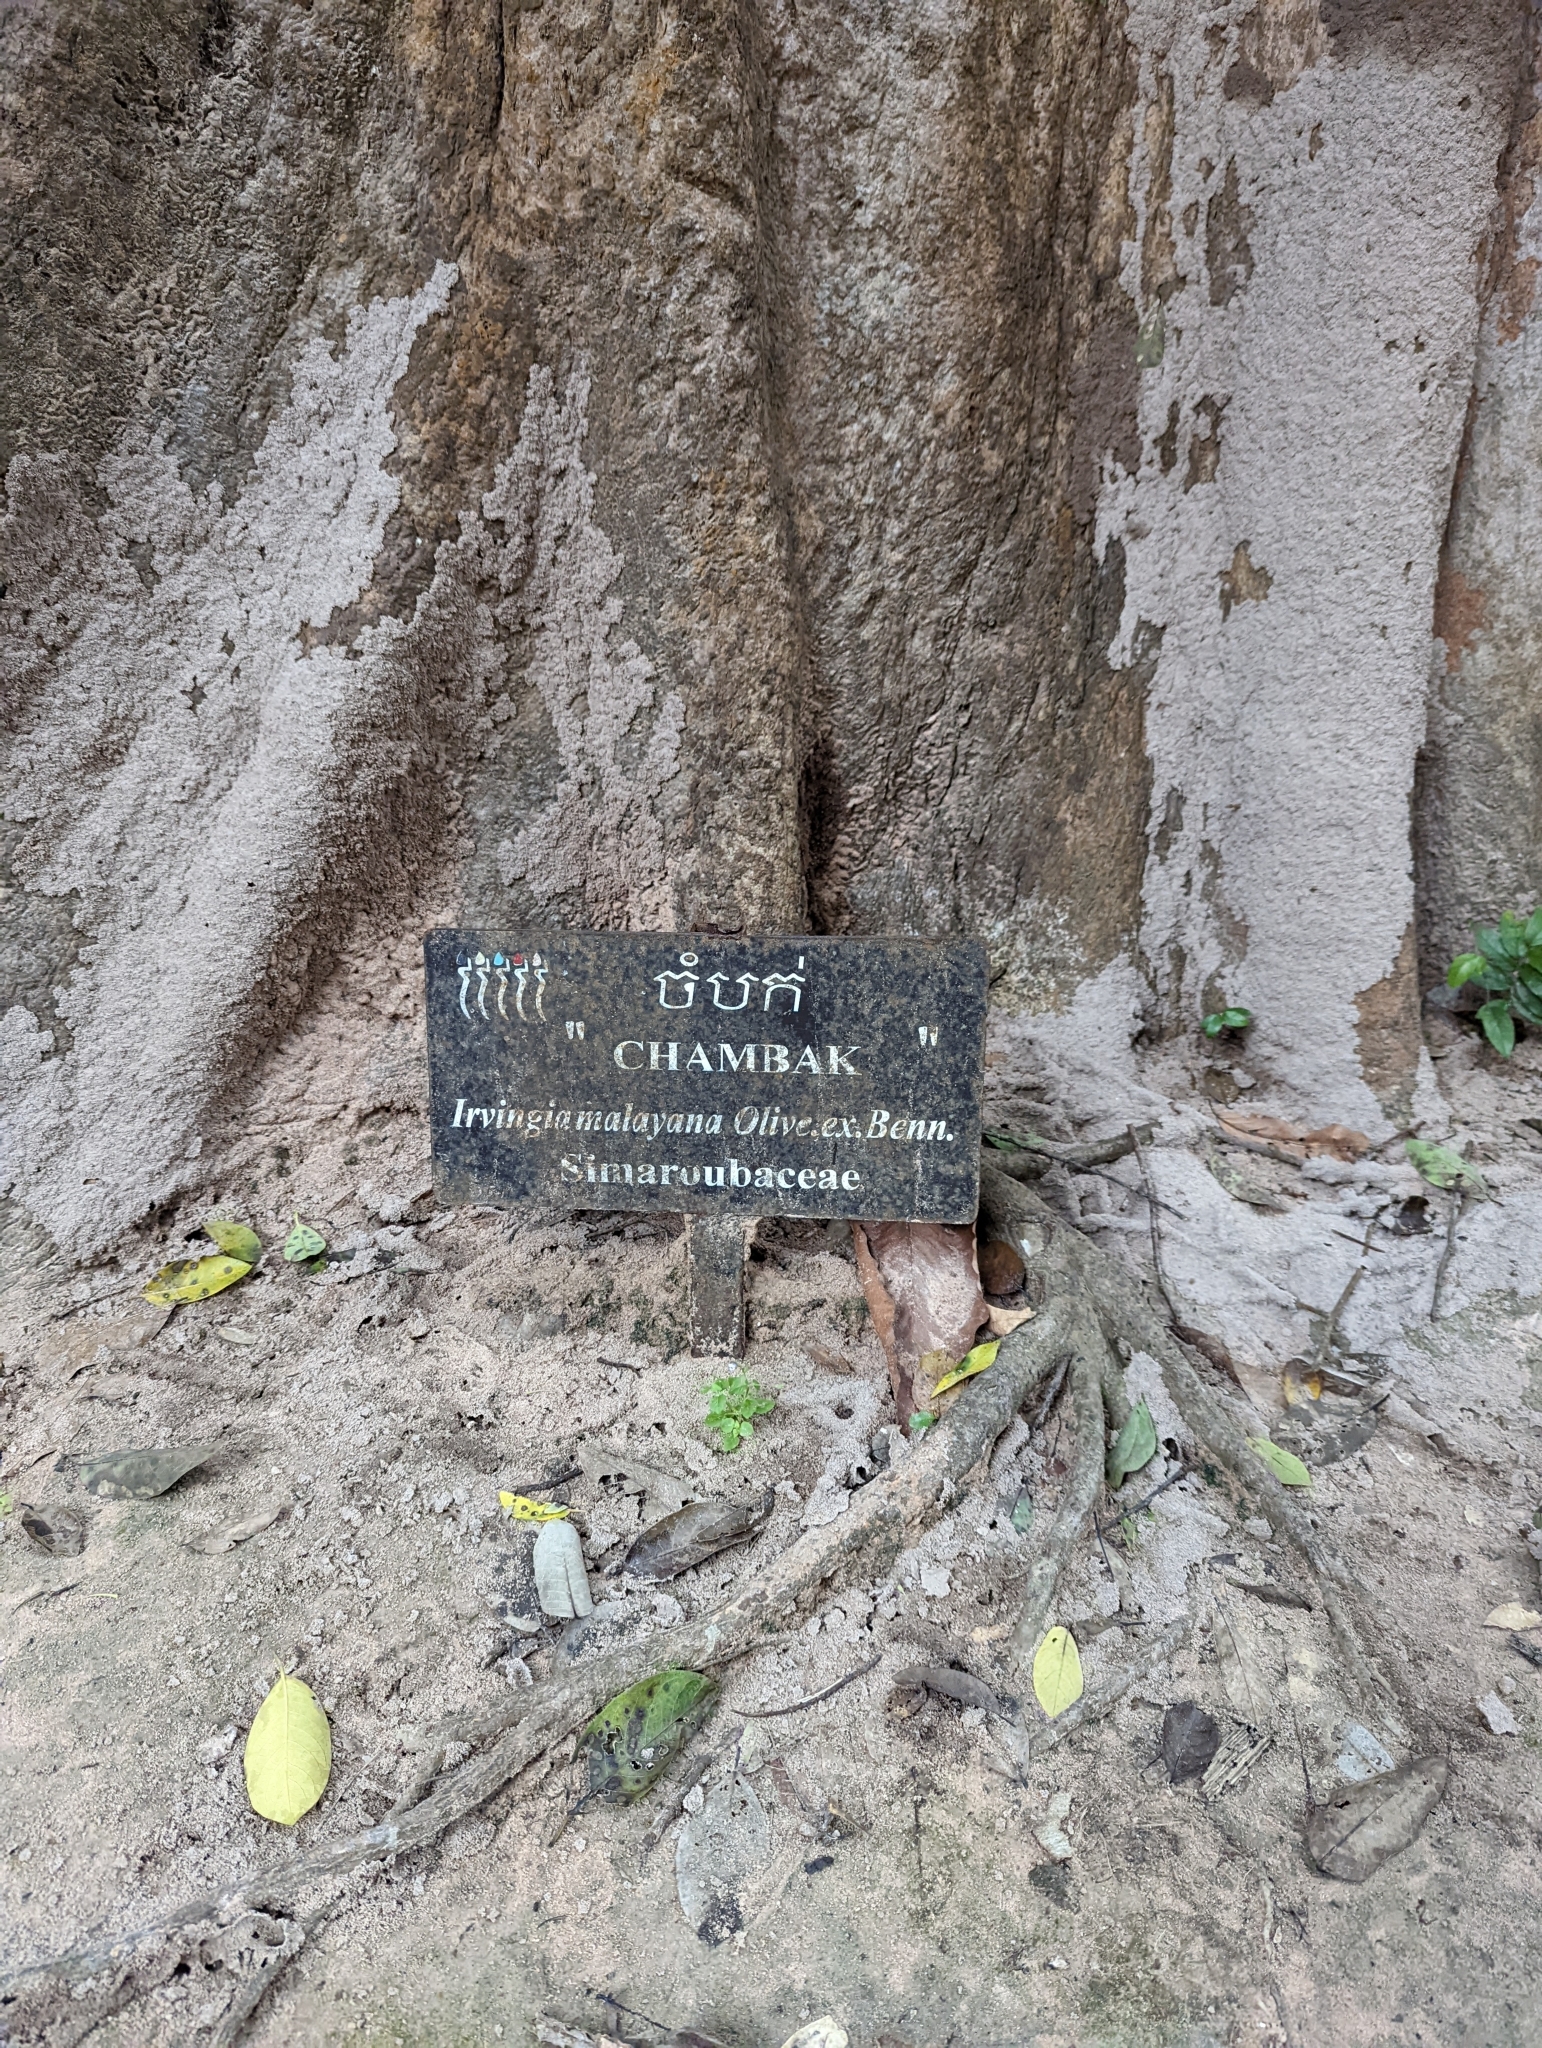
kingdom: Plantae
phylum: Tracheophyta
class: Magnoliopsida
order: Malpighiales
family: Irvingiaceae
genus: Irvingia
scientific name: Irvingia malayana
